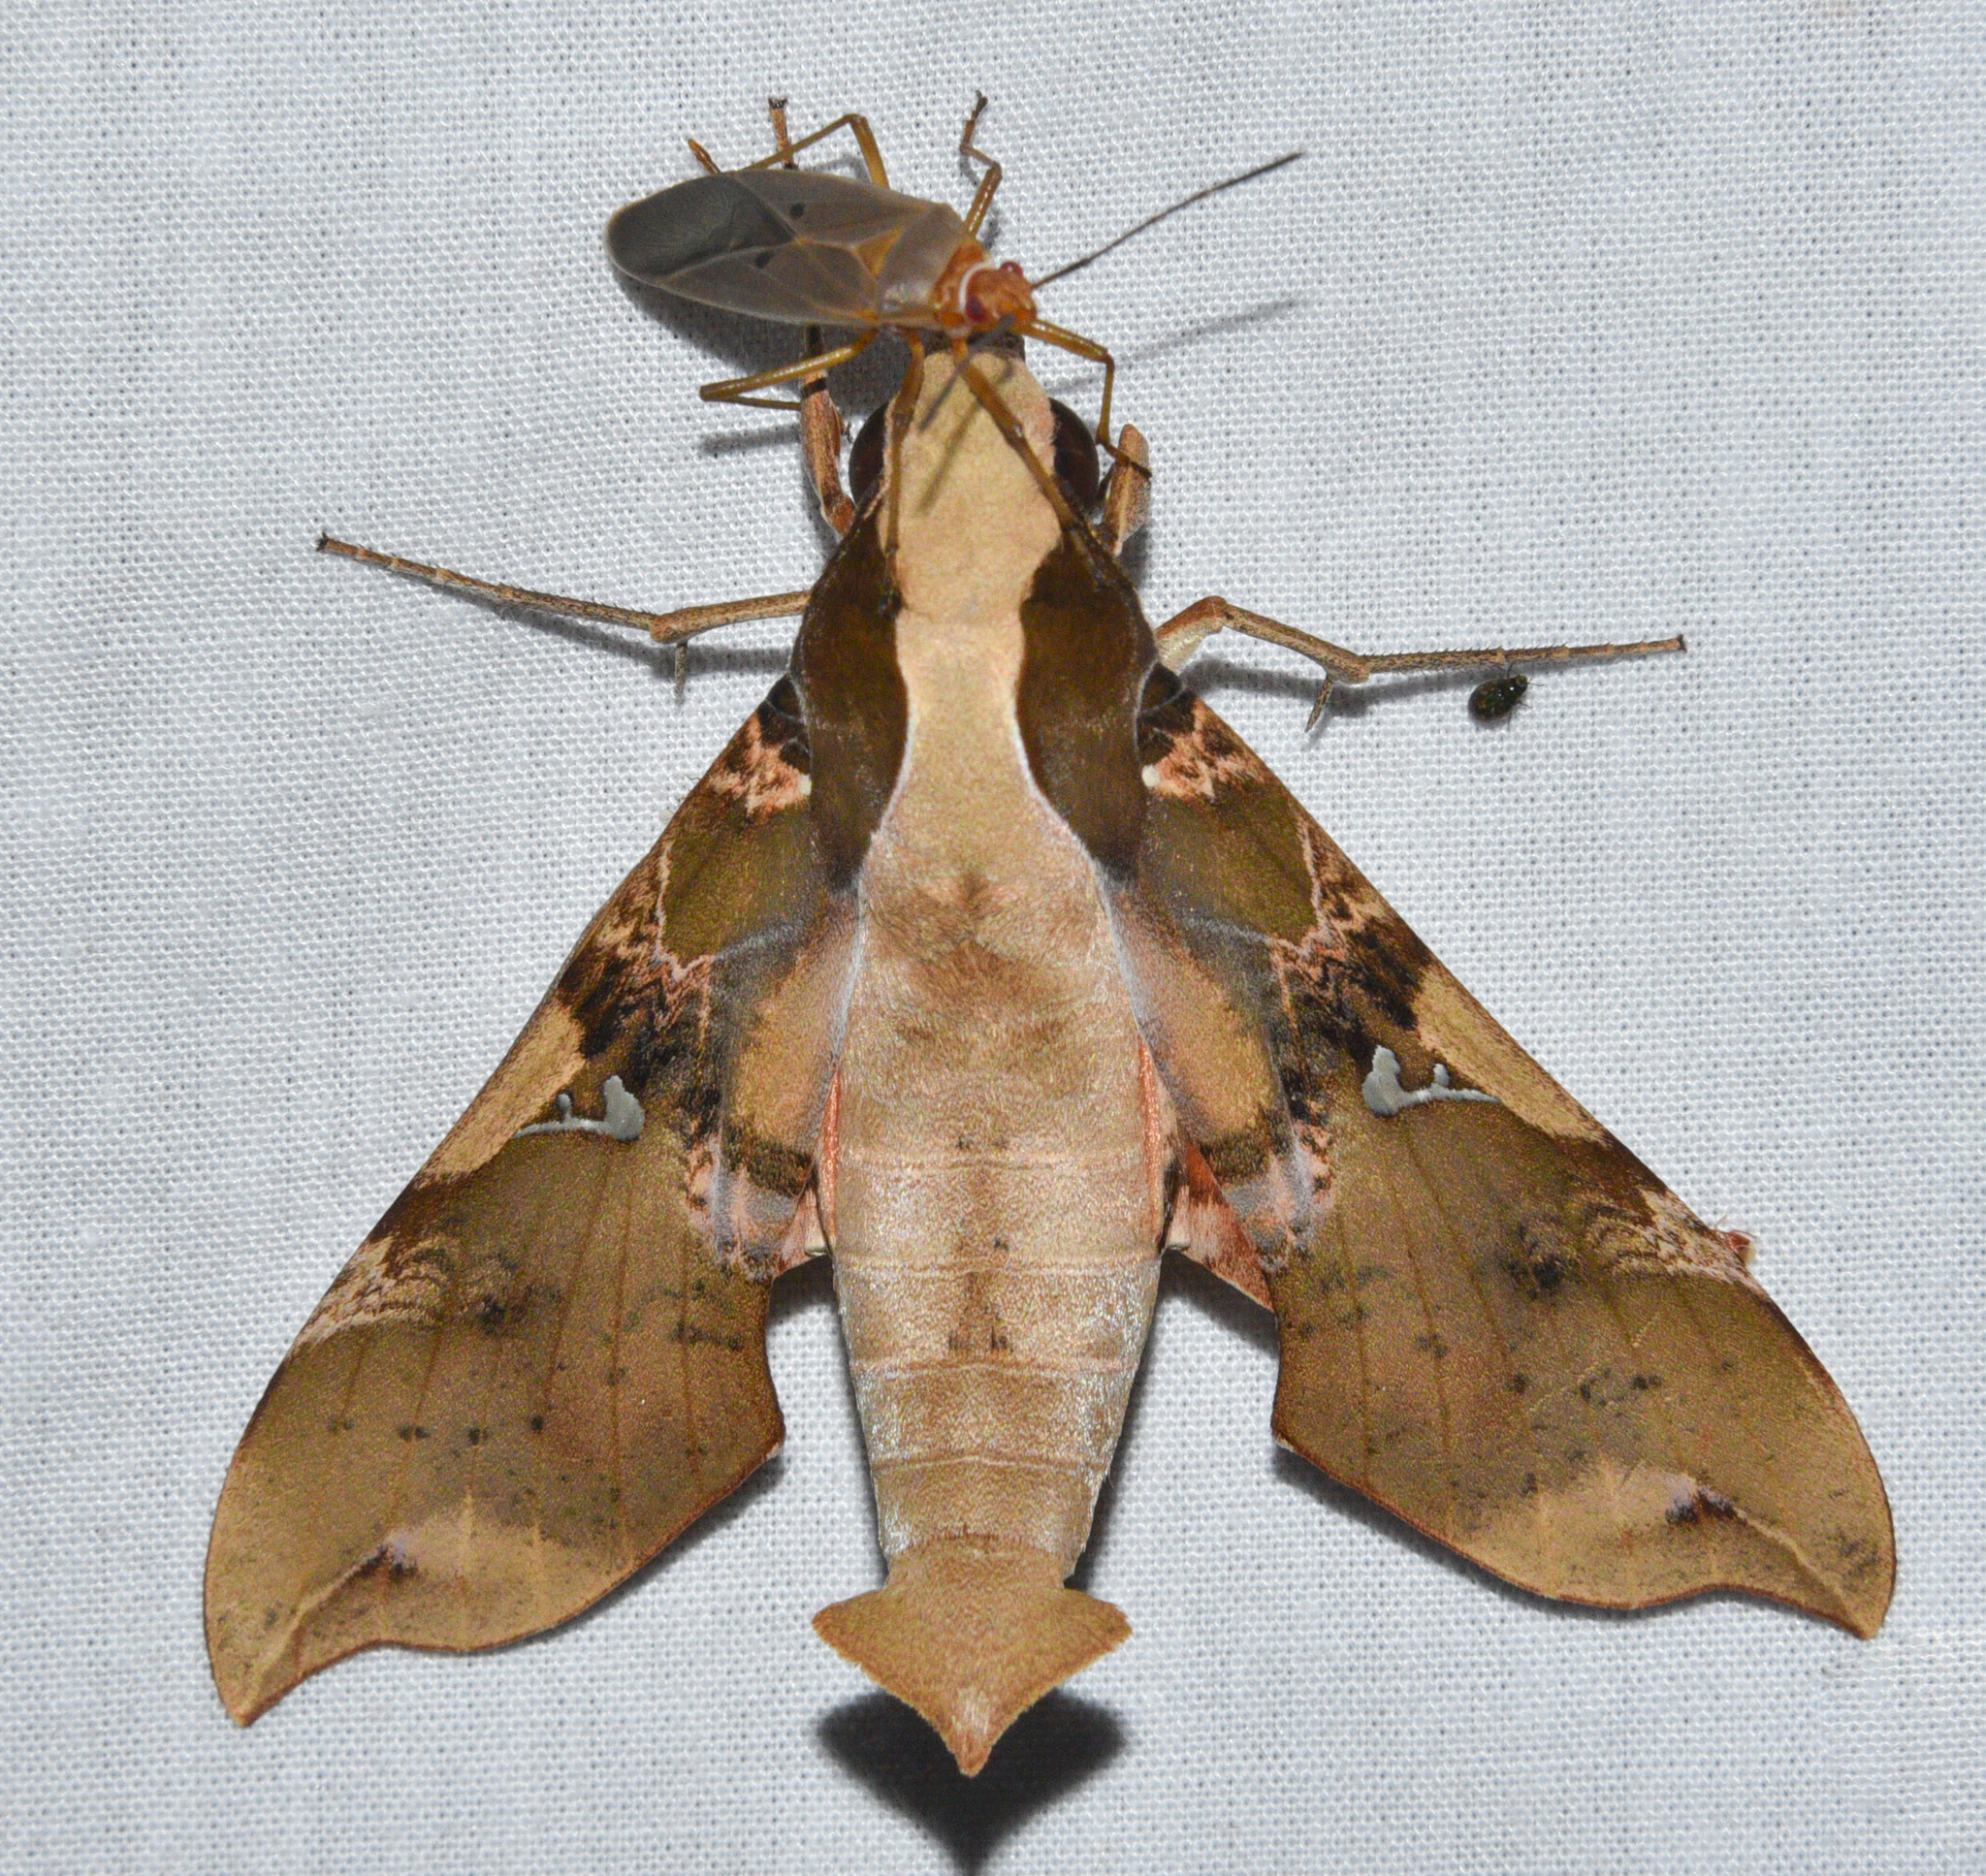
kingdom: Animalia
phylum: Arthropoda
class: Insecta
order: Lepidoptera
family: Sphingidae
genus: Callionima
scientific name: Callionima parce
